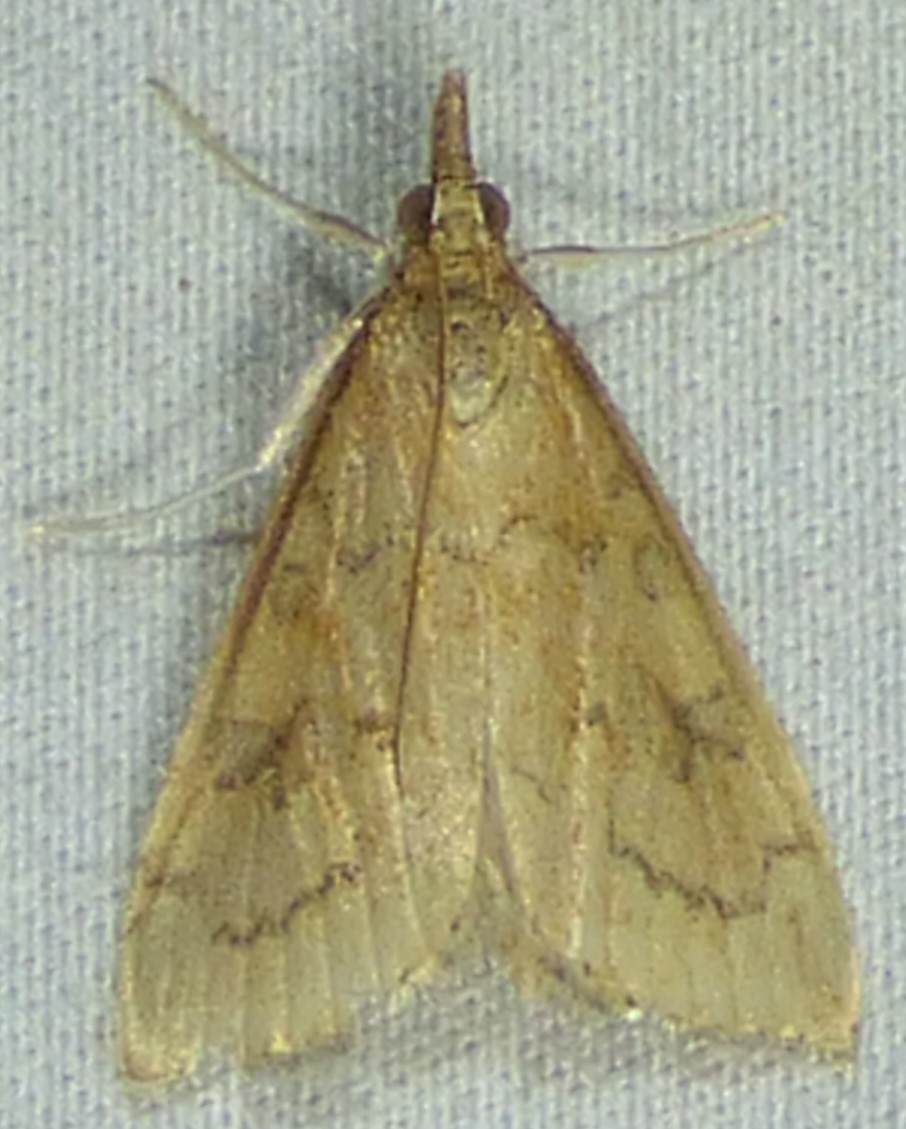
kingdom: Animalia
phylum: Arthropoda
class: Insecta
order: Lepidoptera
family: Crambidae
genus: Udea
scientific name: Udea rubigalis
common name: Celery leaftier moth
